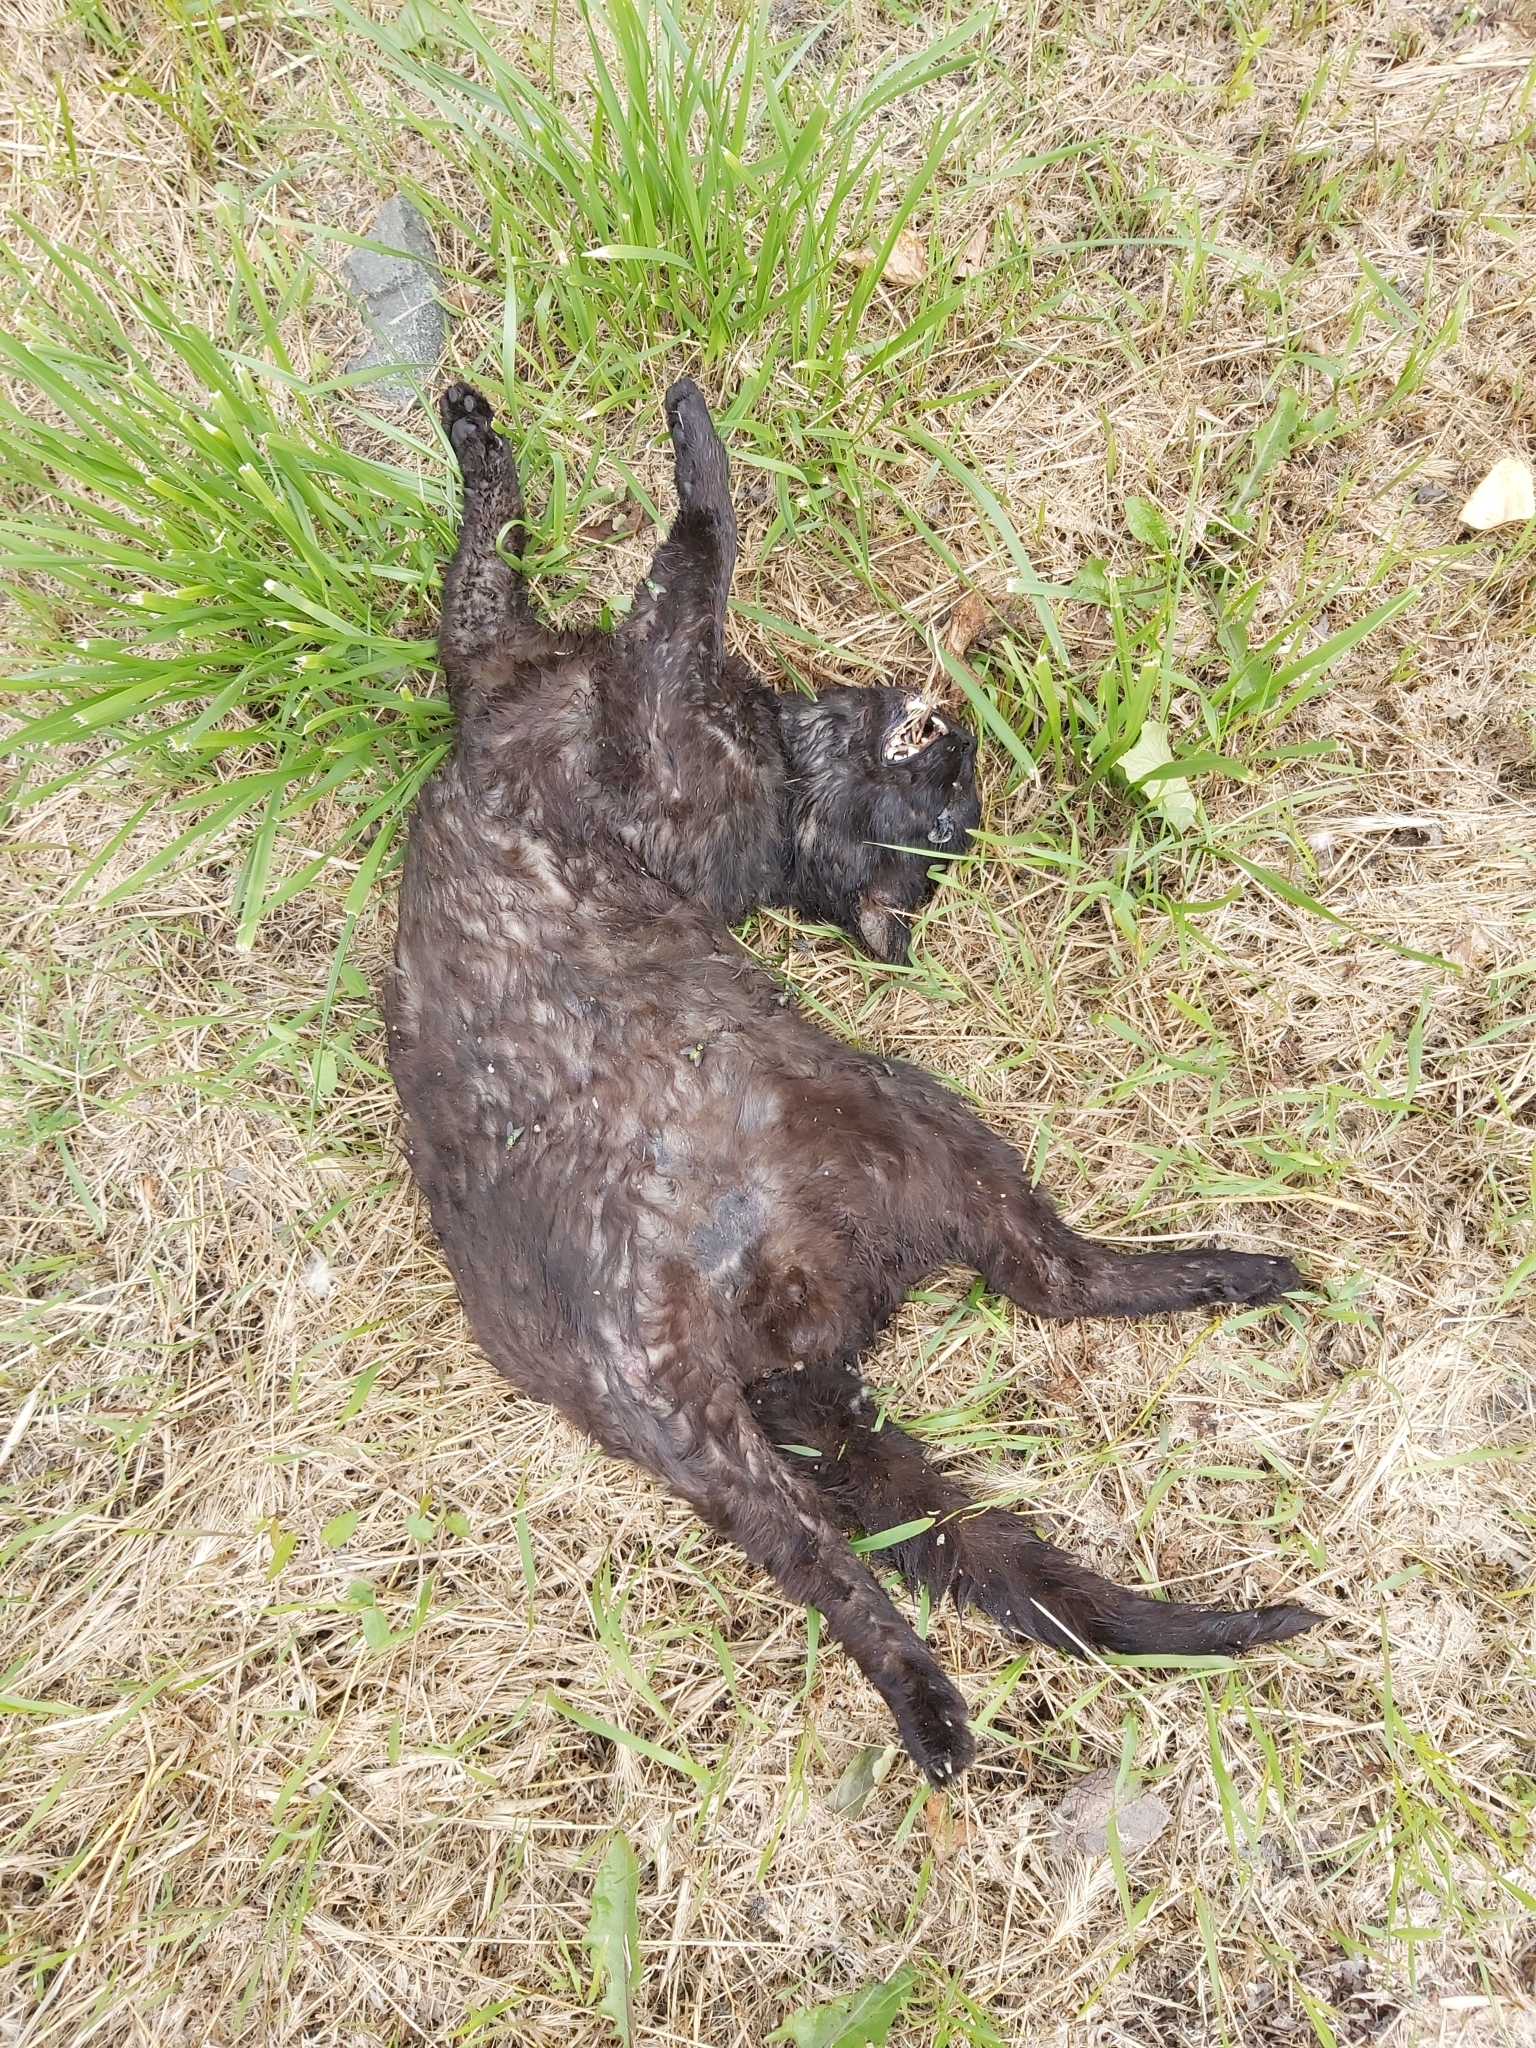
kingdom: Animalia
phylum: Chordata
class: Mammalia
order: Carnivora
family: Felidae
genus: Felis
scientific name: Felis catus
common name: Domestic cat
